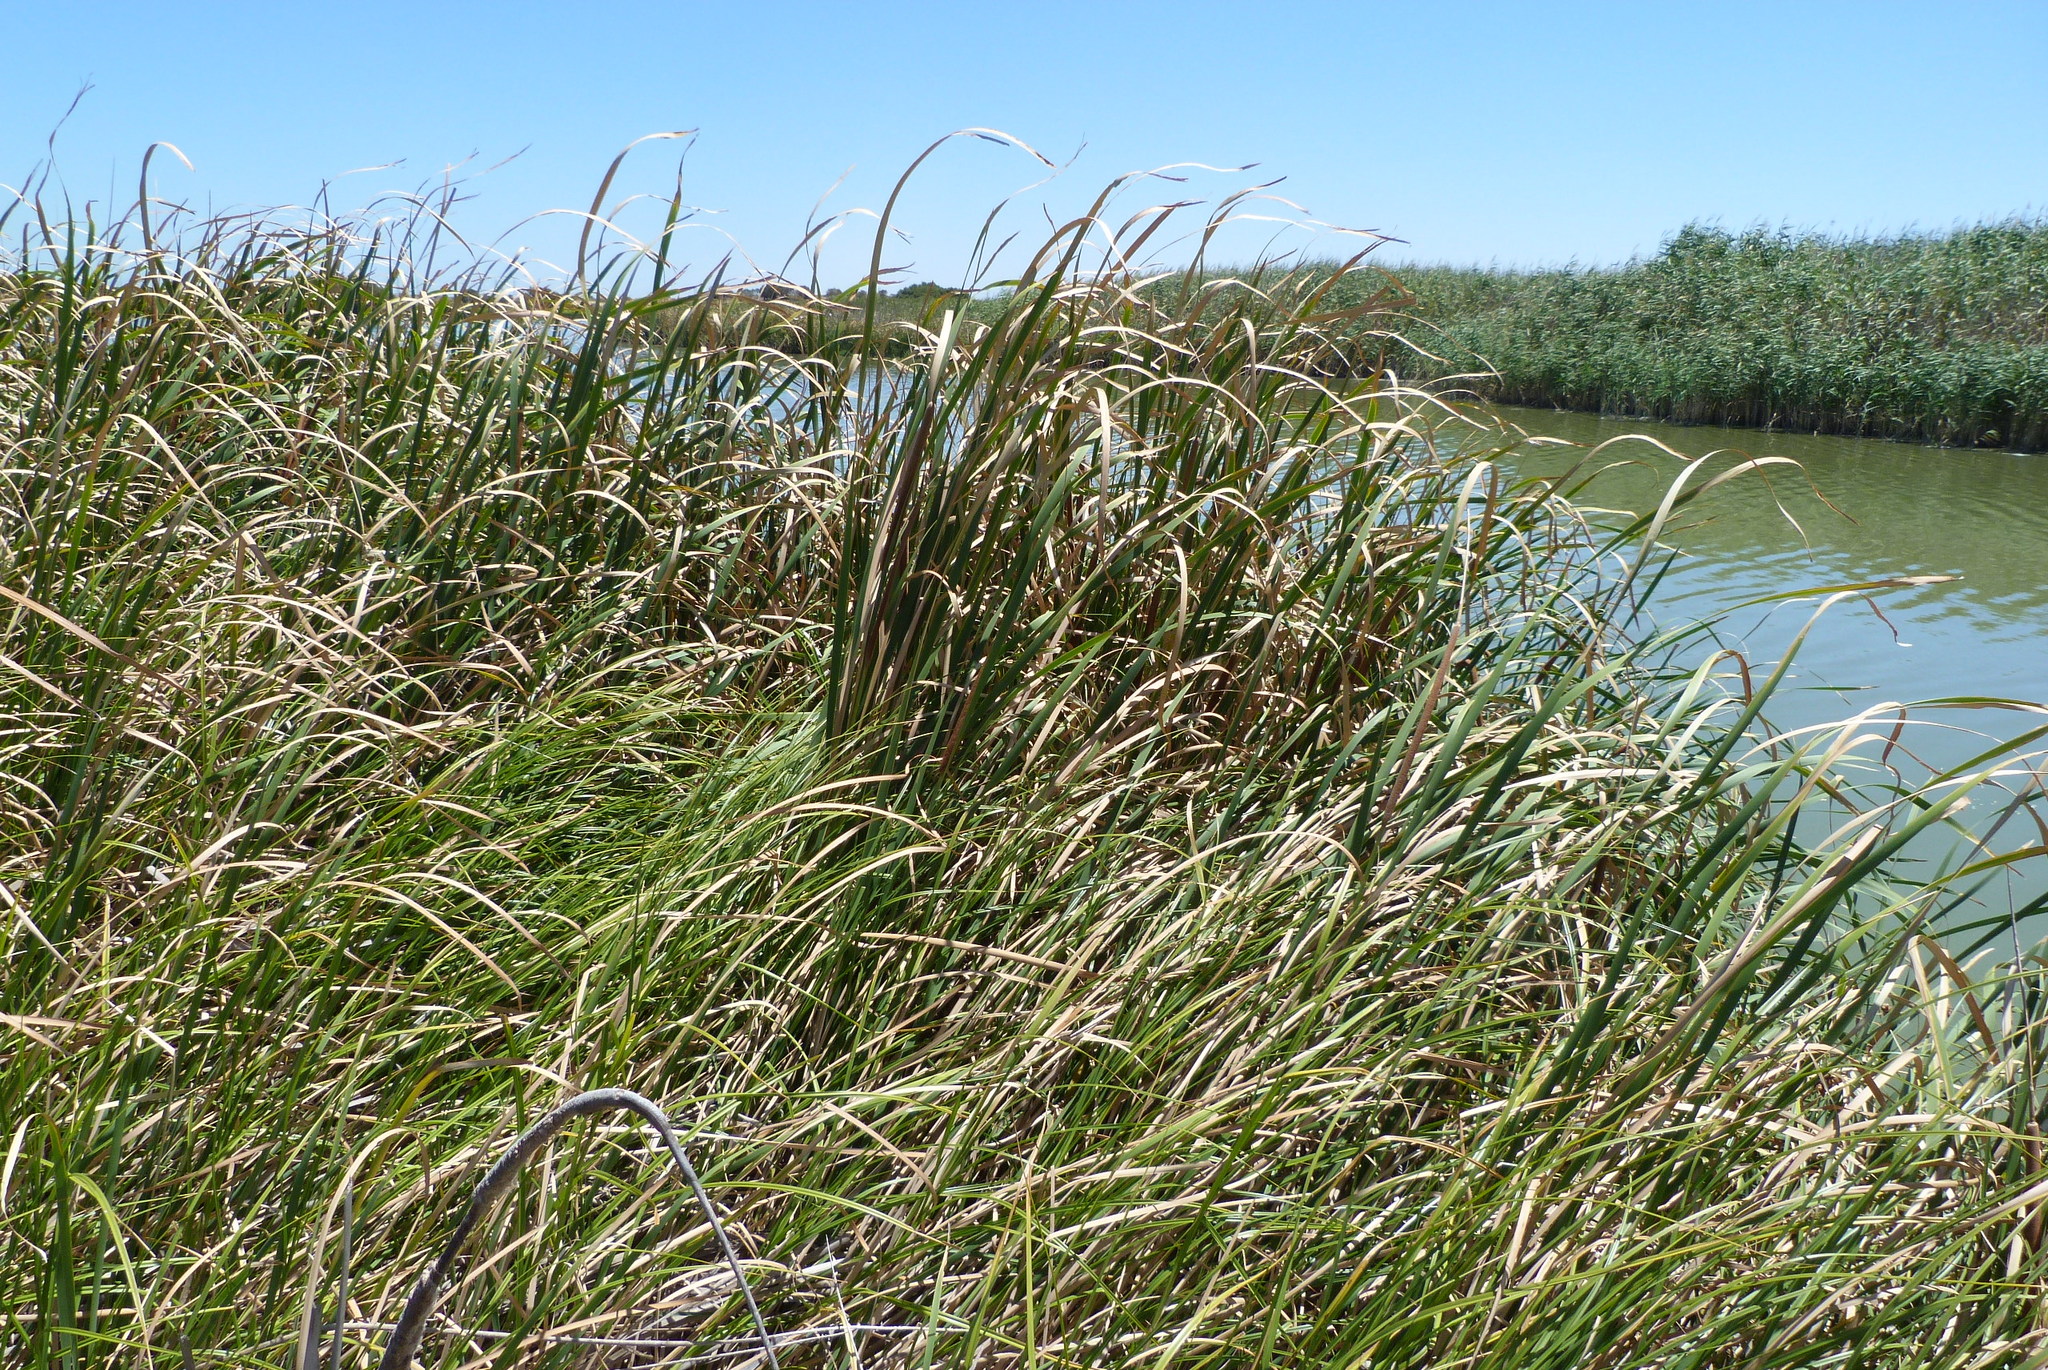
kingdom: Plantae
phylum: Tracheophyta
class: Liliopsida
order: Poales
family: Typhaceae
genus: Typha
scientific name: Typha domingensis
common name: Southern cattail
